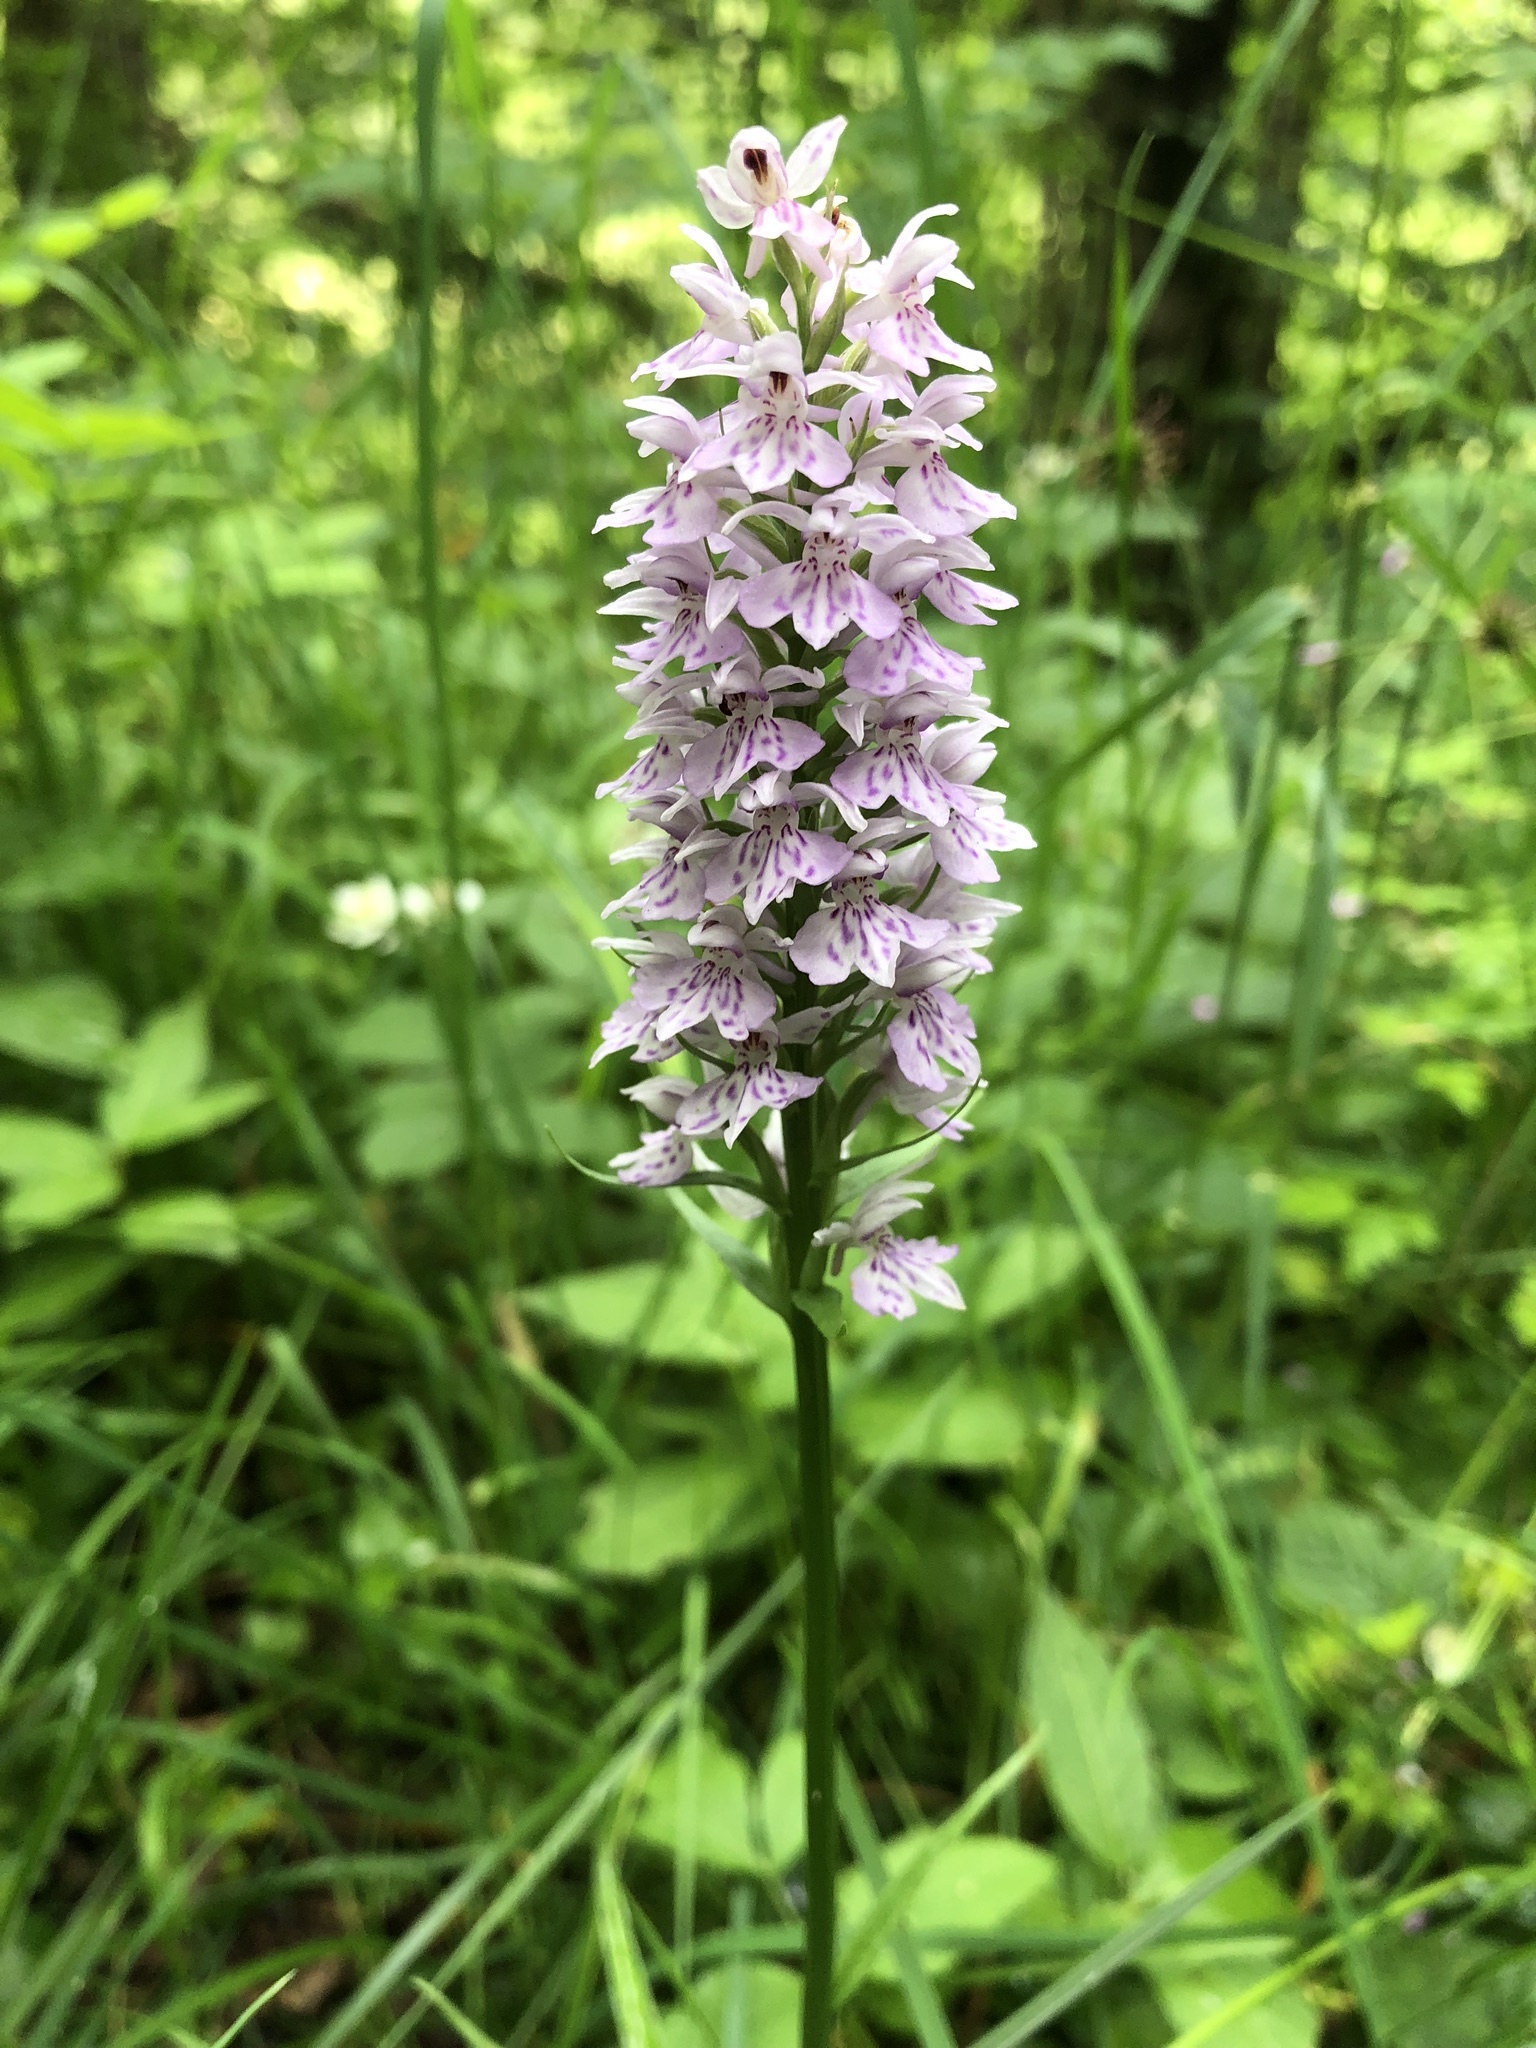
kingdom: Plantae
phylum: Tracheophyta
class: Liliopsida
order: Asparagales
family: Orchidaceae
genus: Dactylorhiza
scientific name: Dactylorhiza maculata
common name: Heath spotted-orchid
